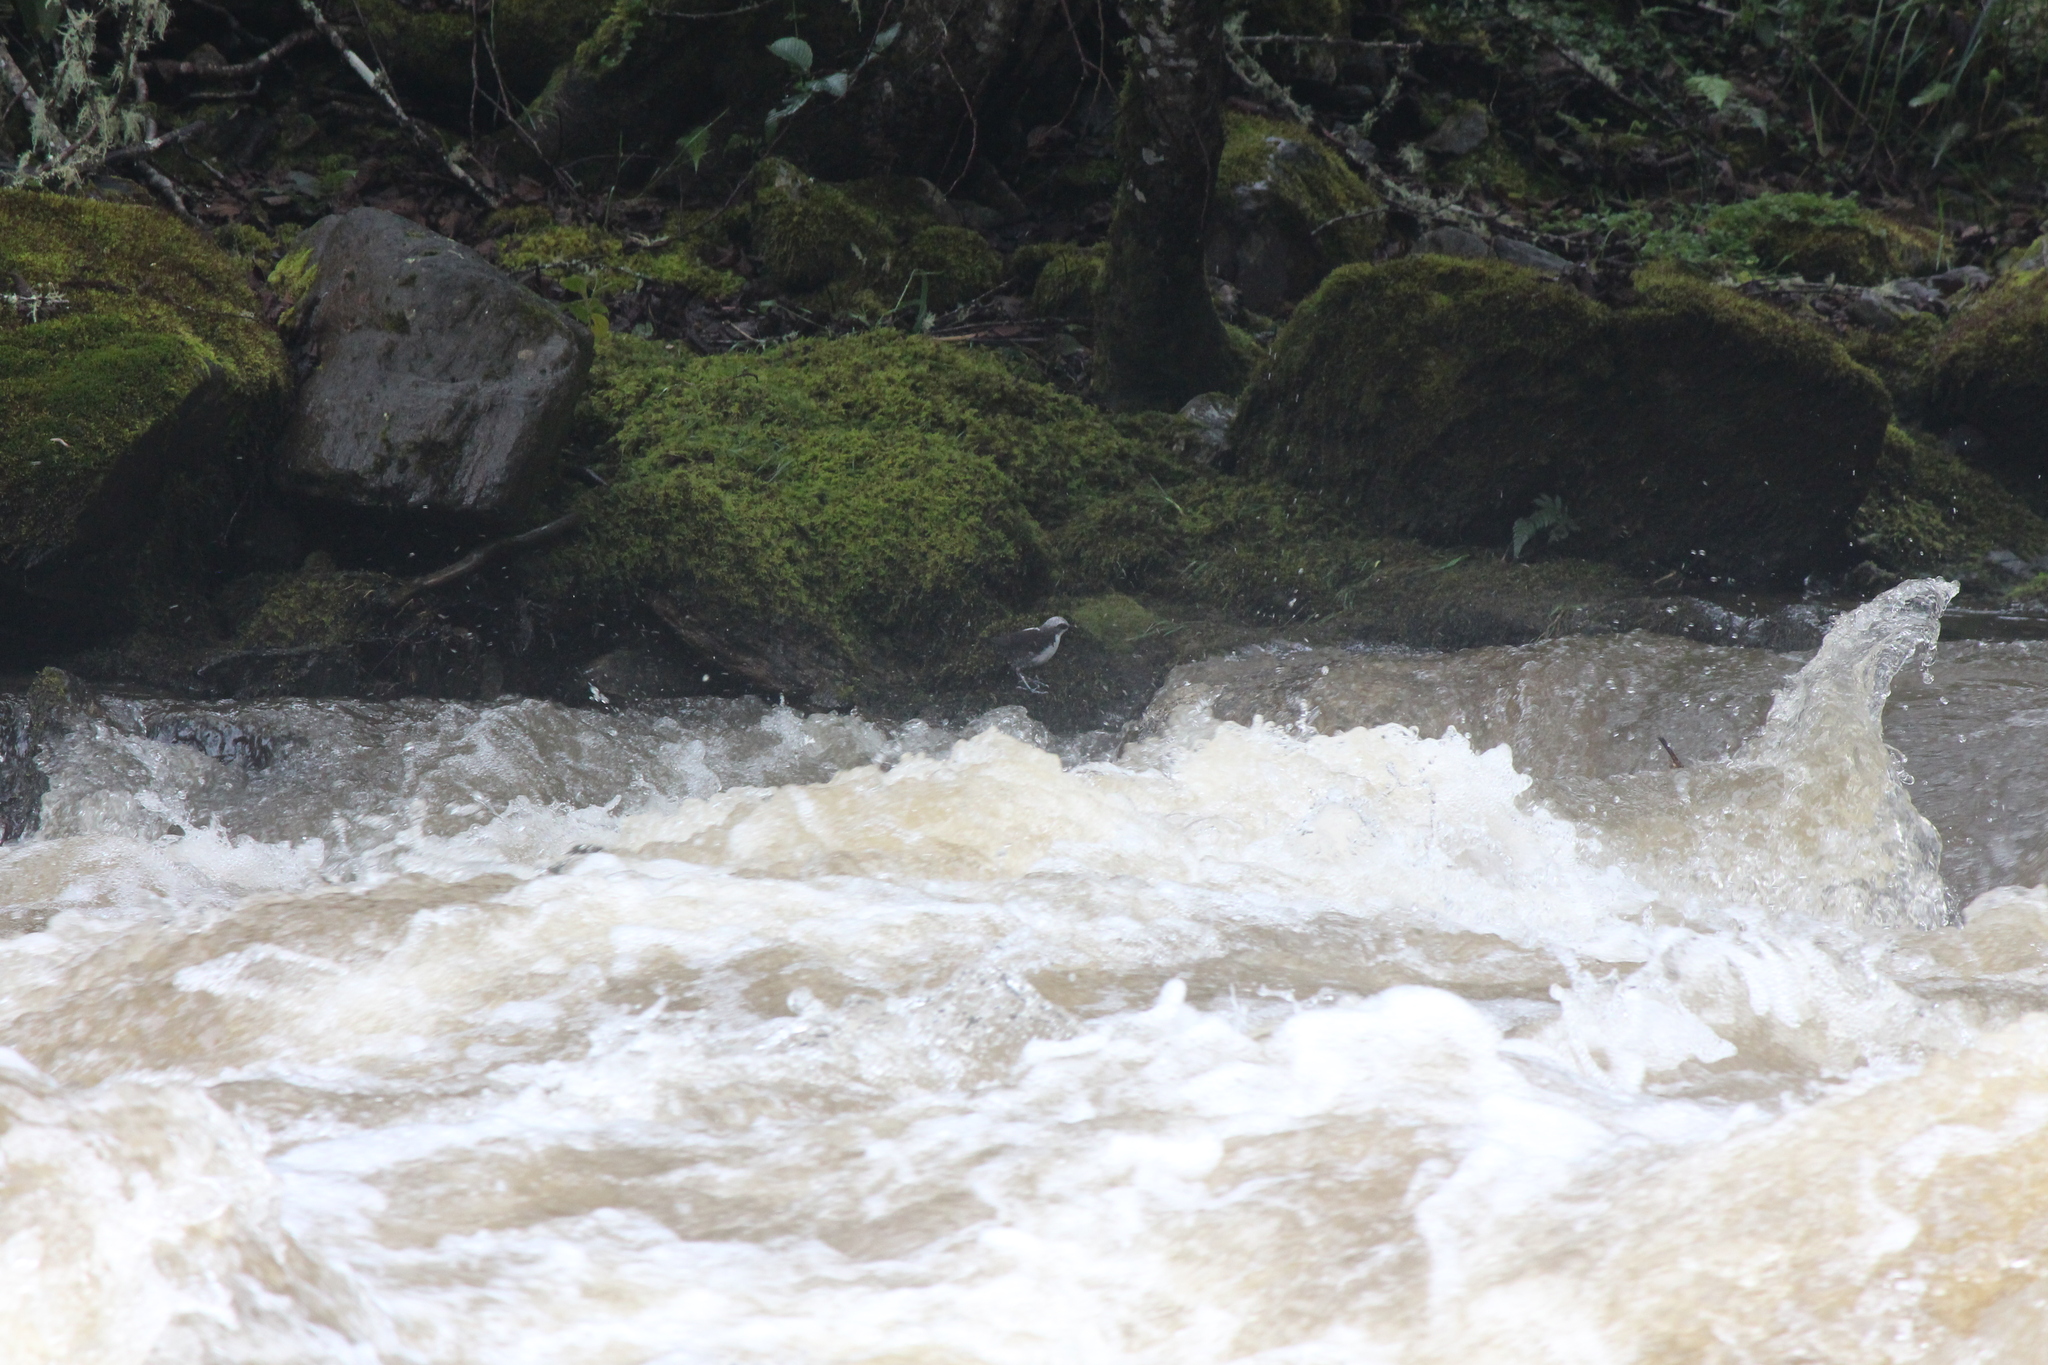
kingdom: Animalia
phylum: Chordata
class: Aves
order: Passeriformes
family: Cinclidae
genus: Cinclus
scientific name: Cinclus leucocephalus
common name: White-capped dipper
